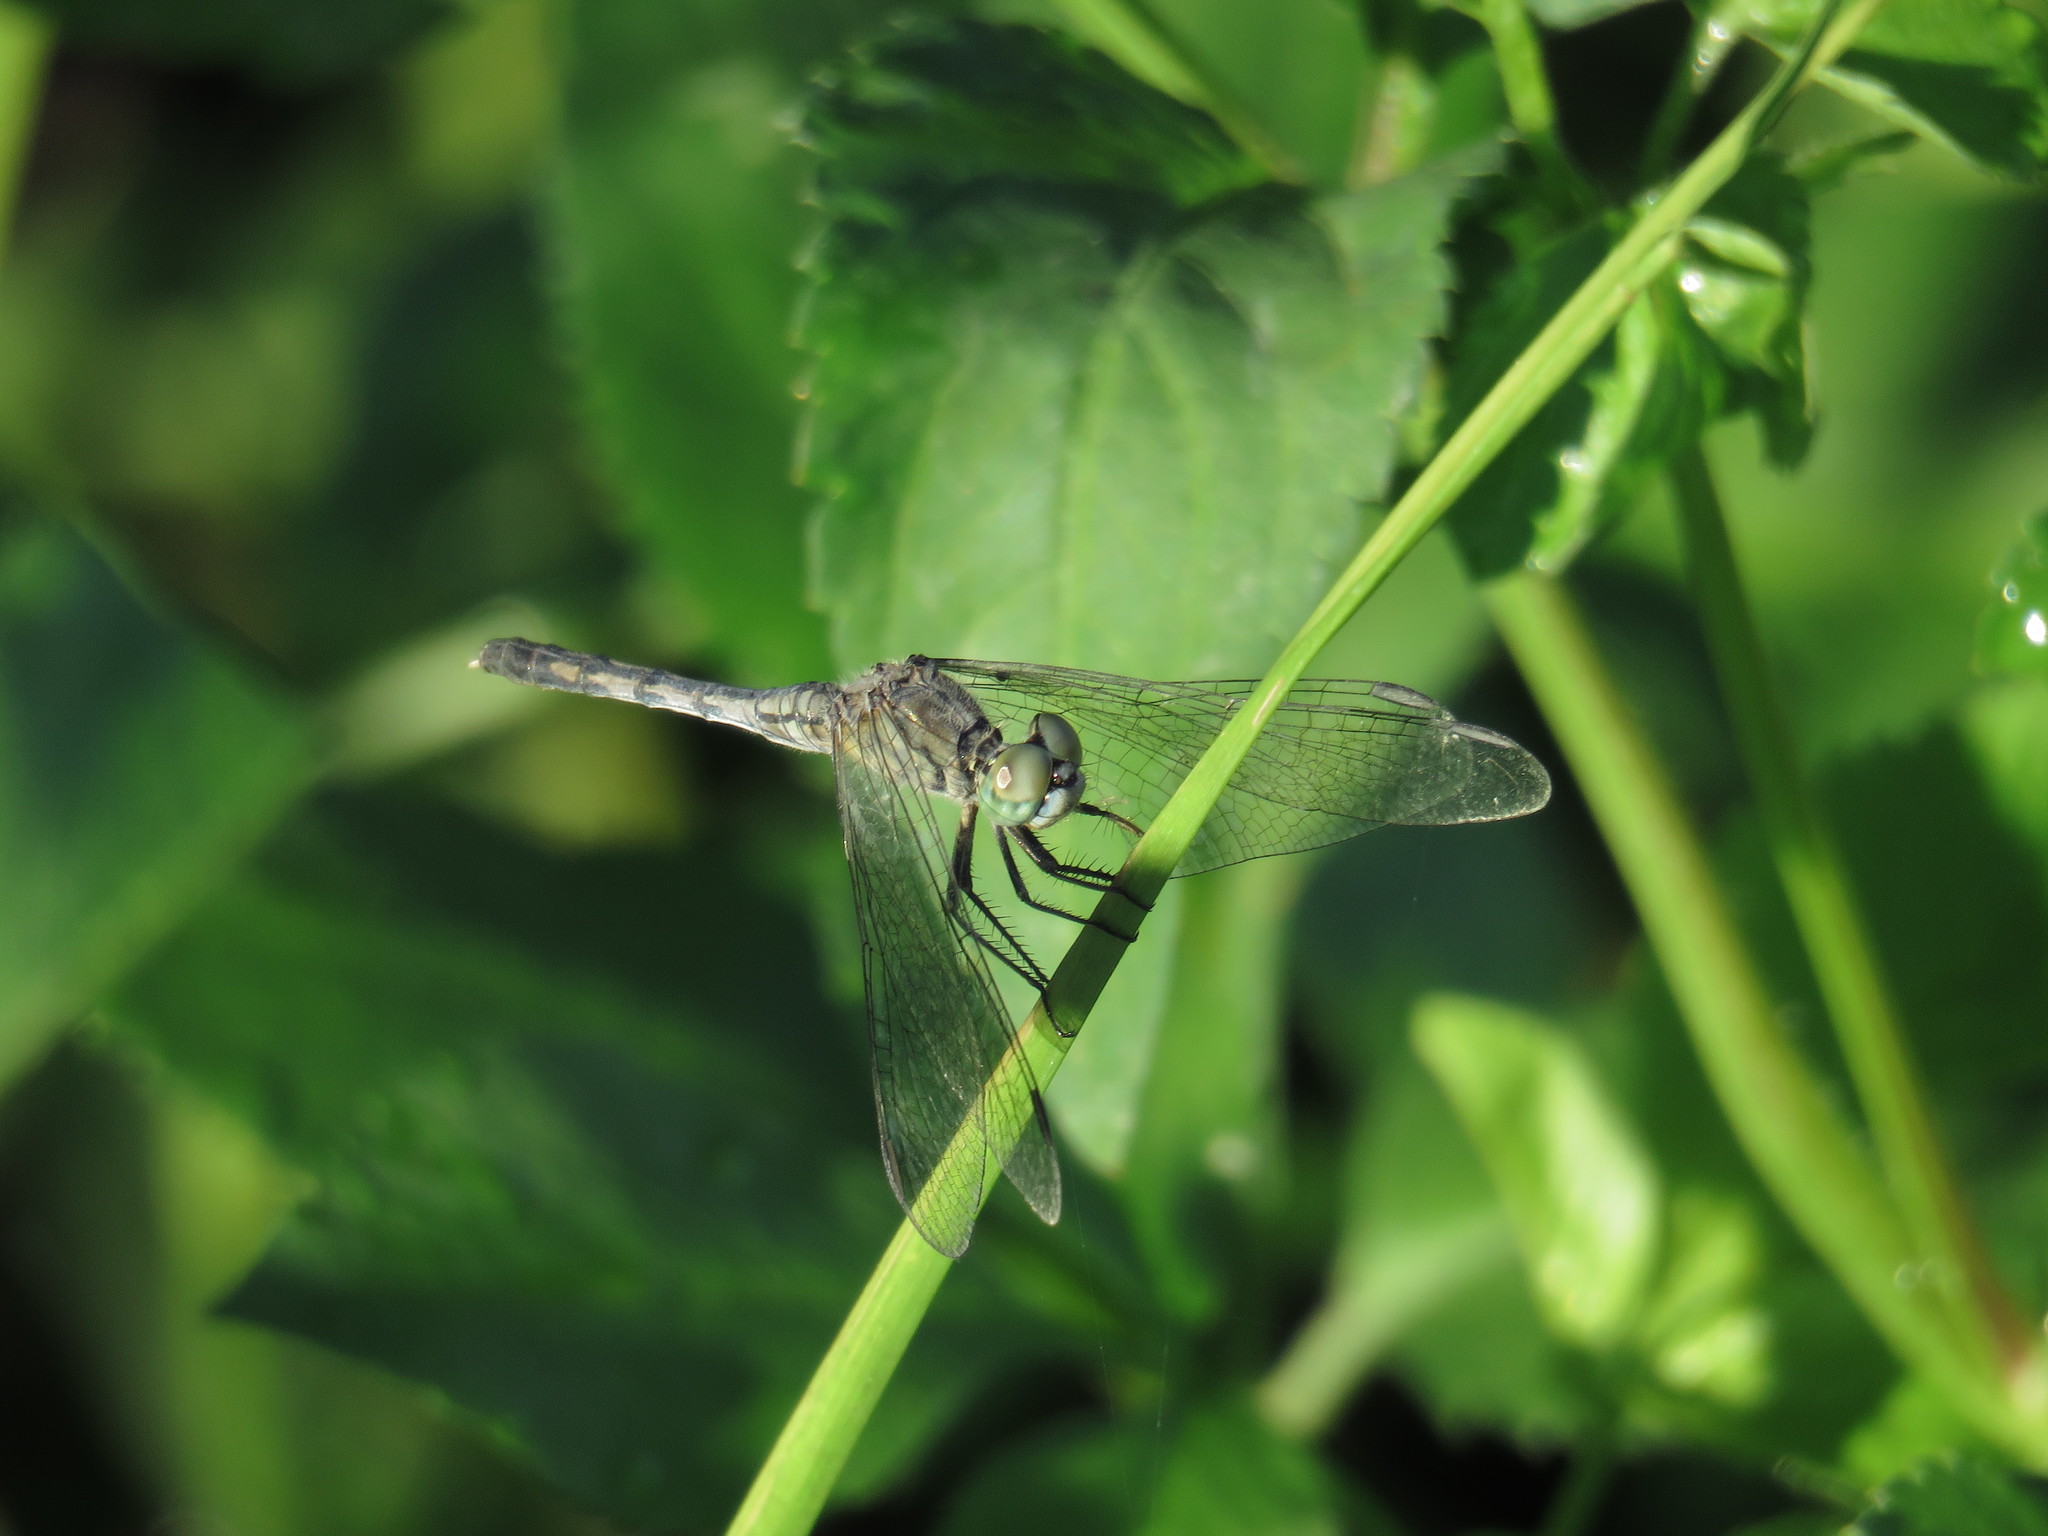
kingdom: Animalia
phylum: Arthropoda
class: Insecta
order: Odonata
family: Libellulidae
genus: Diplacodes
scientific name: Diplacodes trivialis
